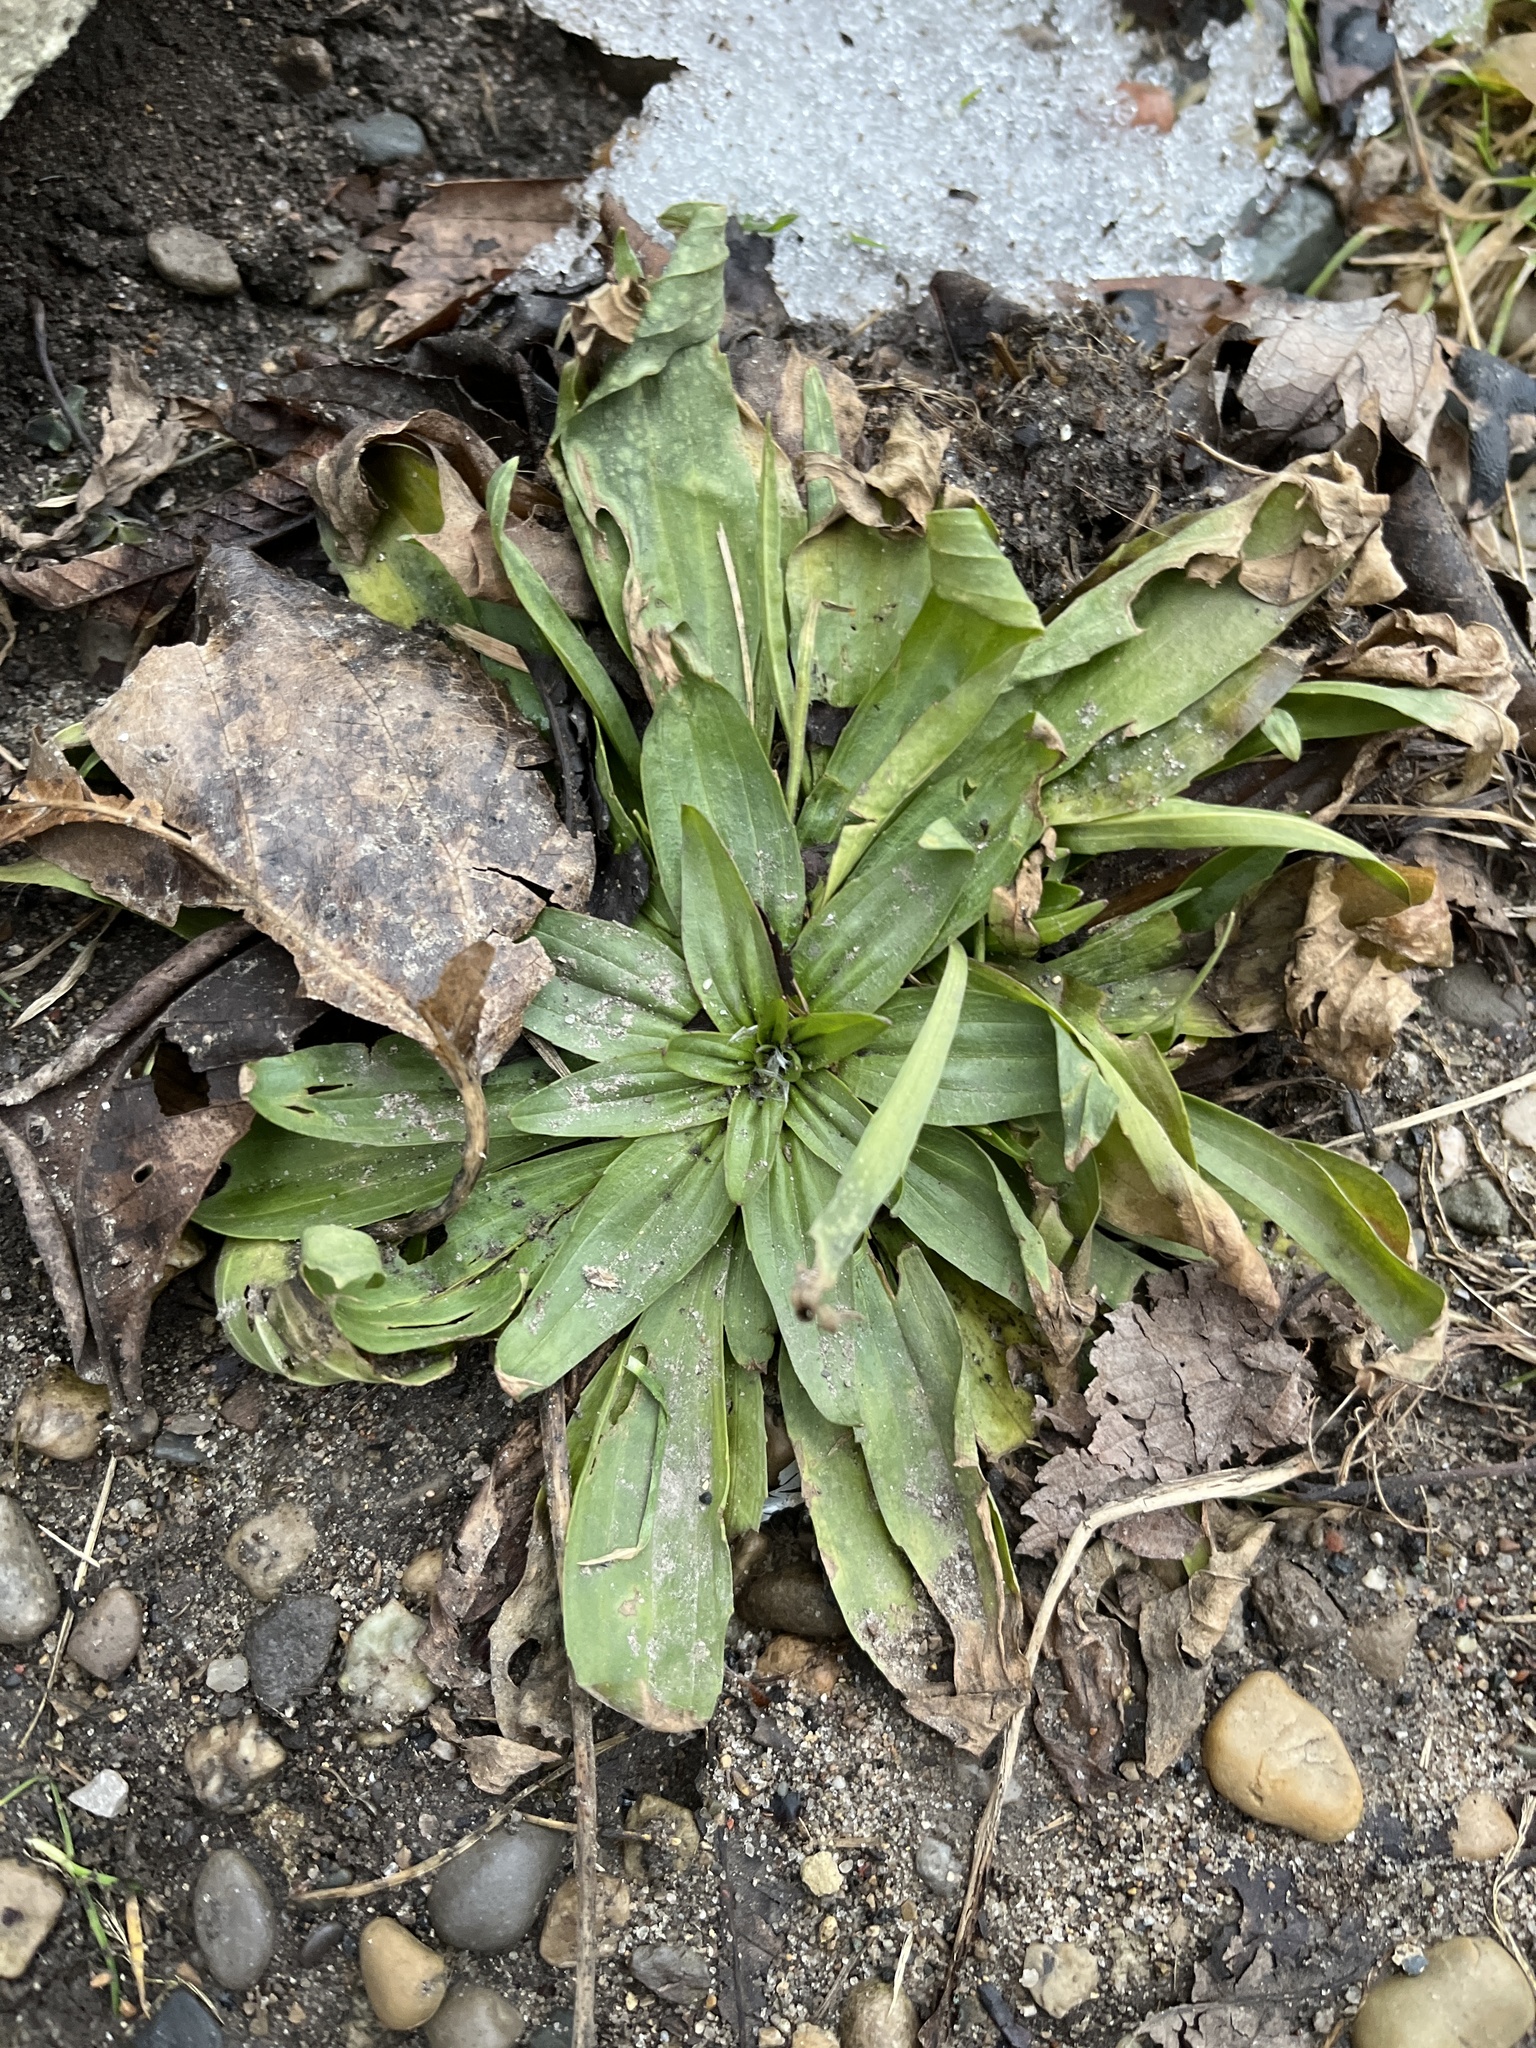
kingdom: Plantae
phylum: Tracheophyta
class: Magnoliopsida
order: Lamiales
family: Plantaginaceae
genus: Plantago
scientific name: Plantago lanceolata
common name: Ribwort plantain
